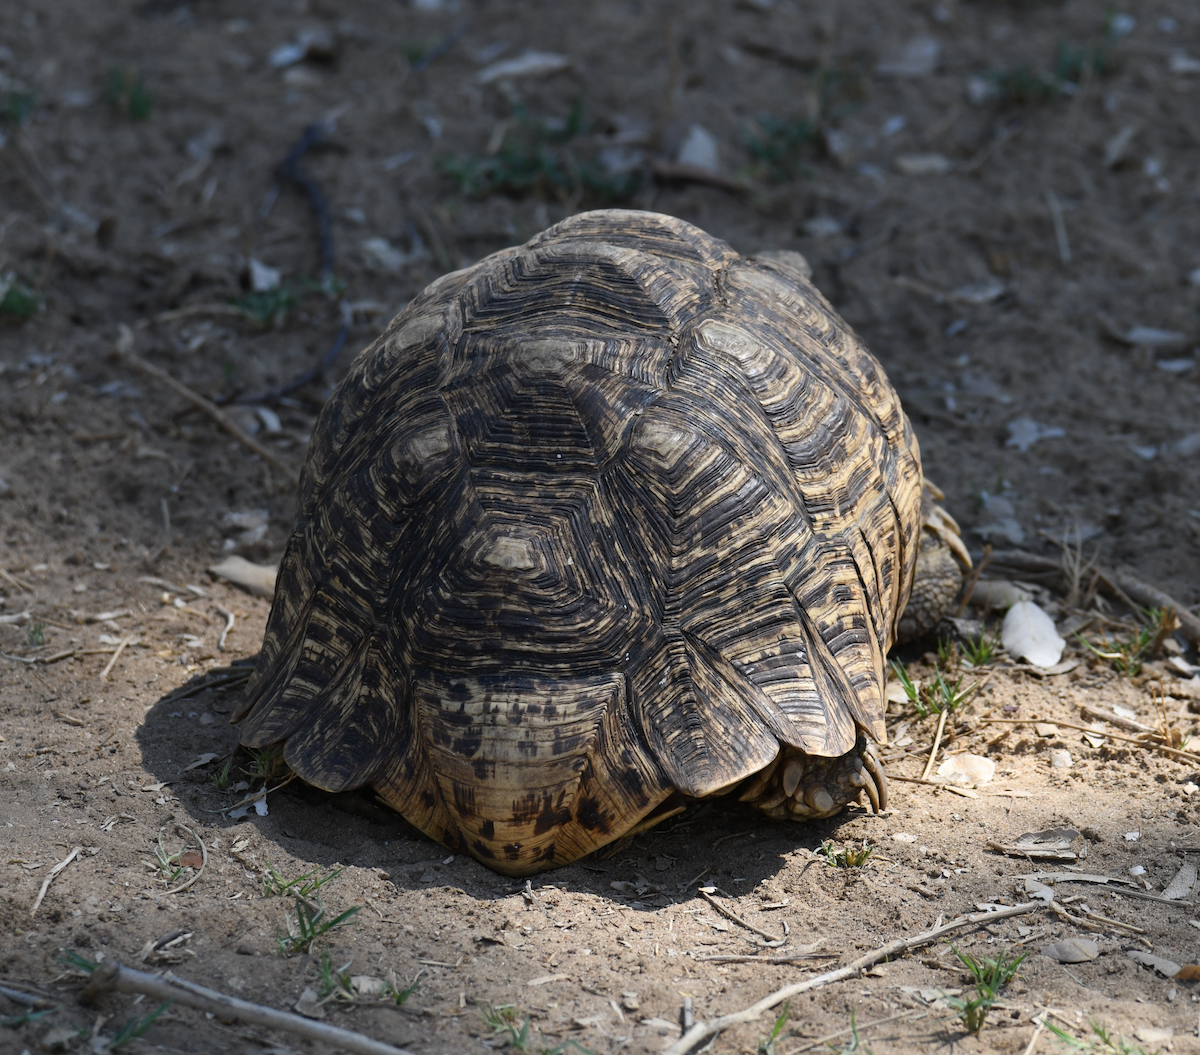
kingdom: Animalia
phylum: Chordata
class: Testudines
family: Testudinidae
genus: Stigmochelys
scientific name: Stigmochelys pardalis
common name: Leopard tortoise
